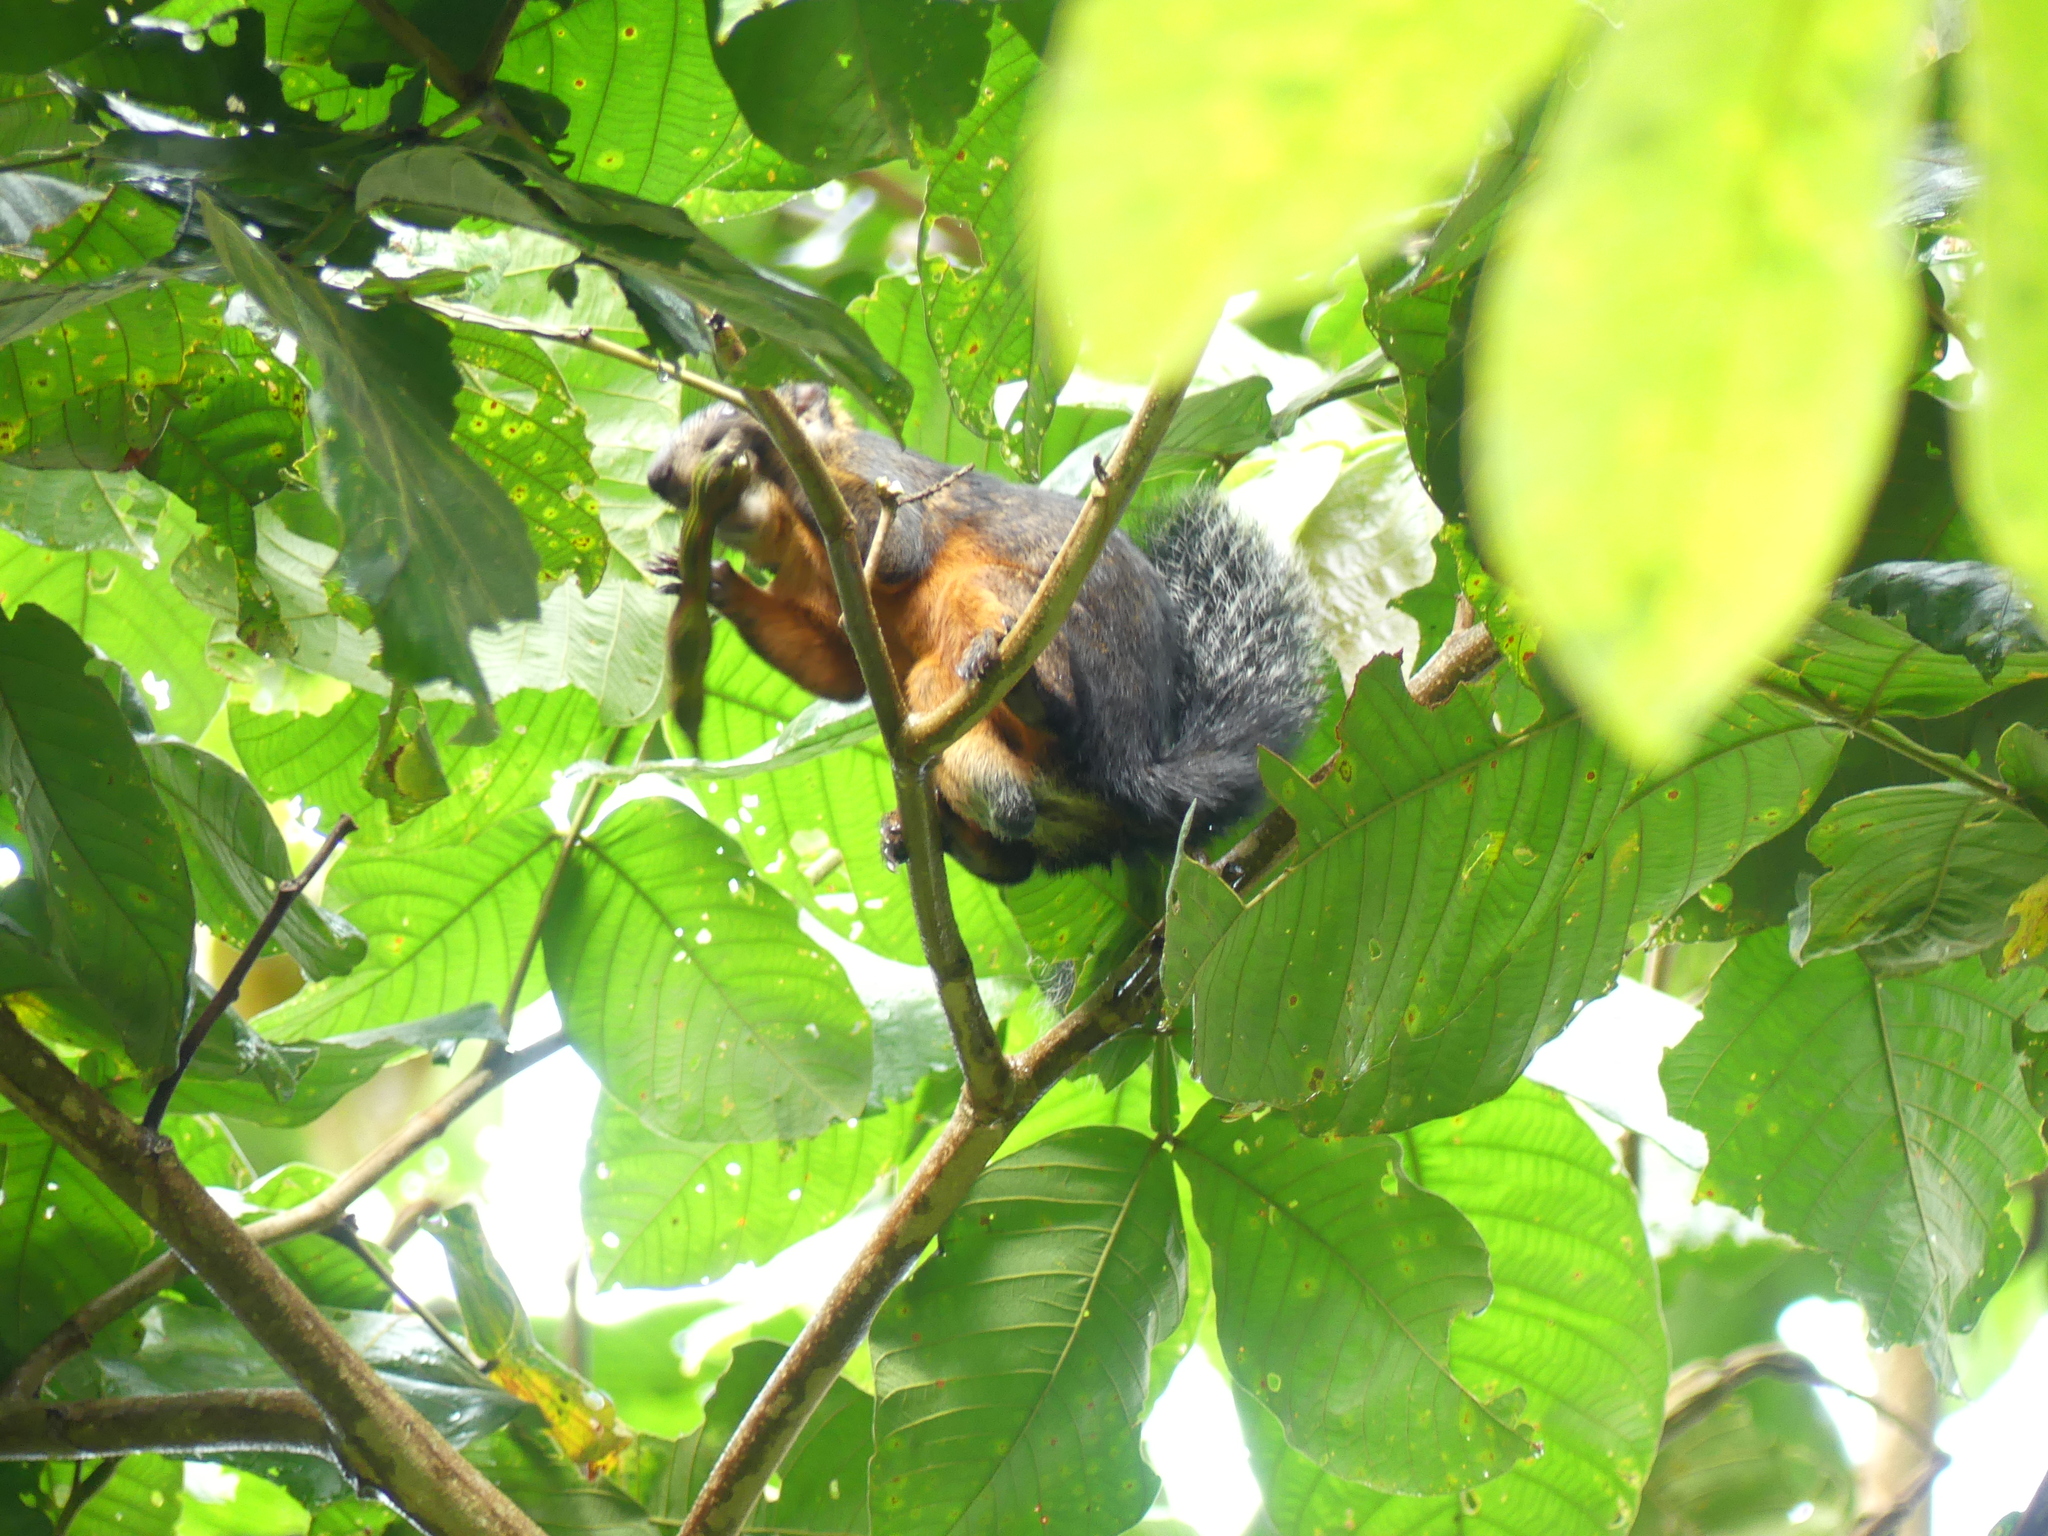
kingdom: Animalia
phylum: Chordata
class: Mammalia
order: Rodentia
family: Sciuridae
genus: Sciurus
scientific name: Sciurus variegatoides
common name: Variegated squirrel
